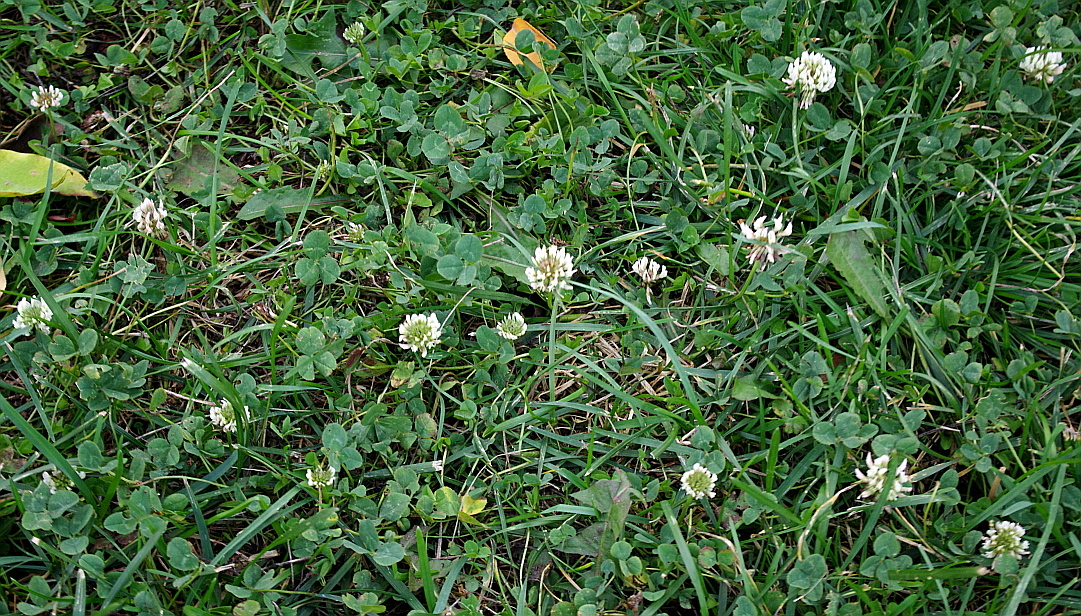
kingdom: Plantae
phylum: Tracheophyta
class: Magnoliopsida
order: Fabales
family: Fabaceae
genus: Trifolium
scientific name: Trifolium repens
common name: White clover
